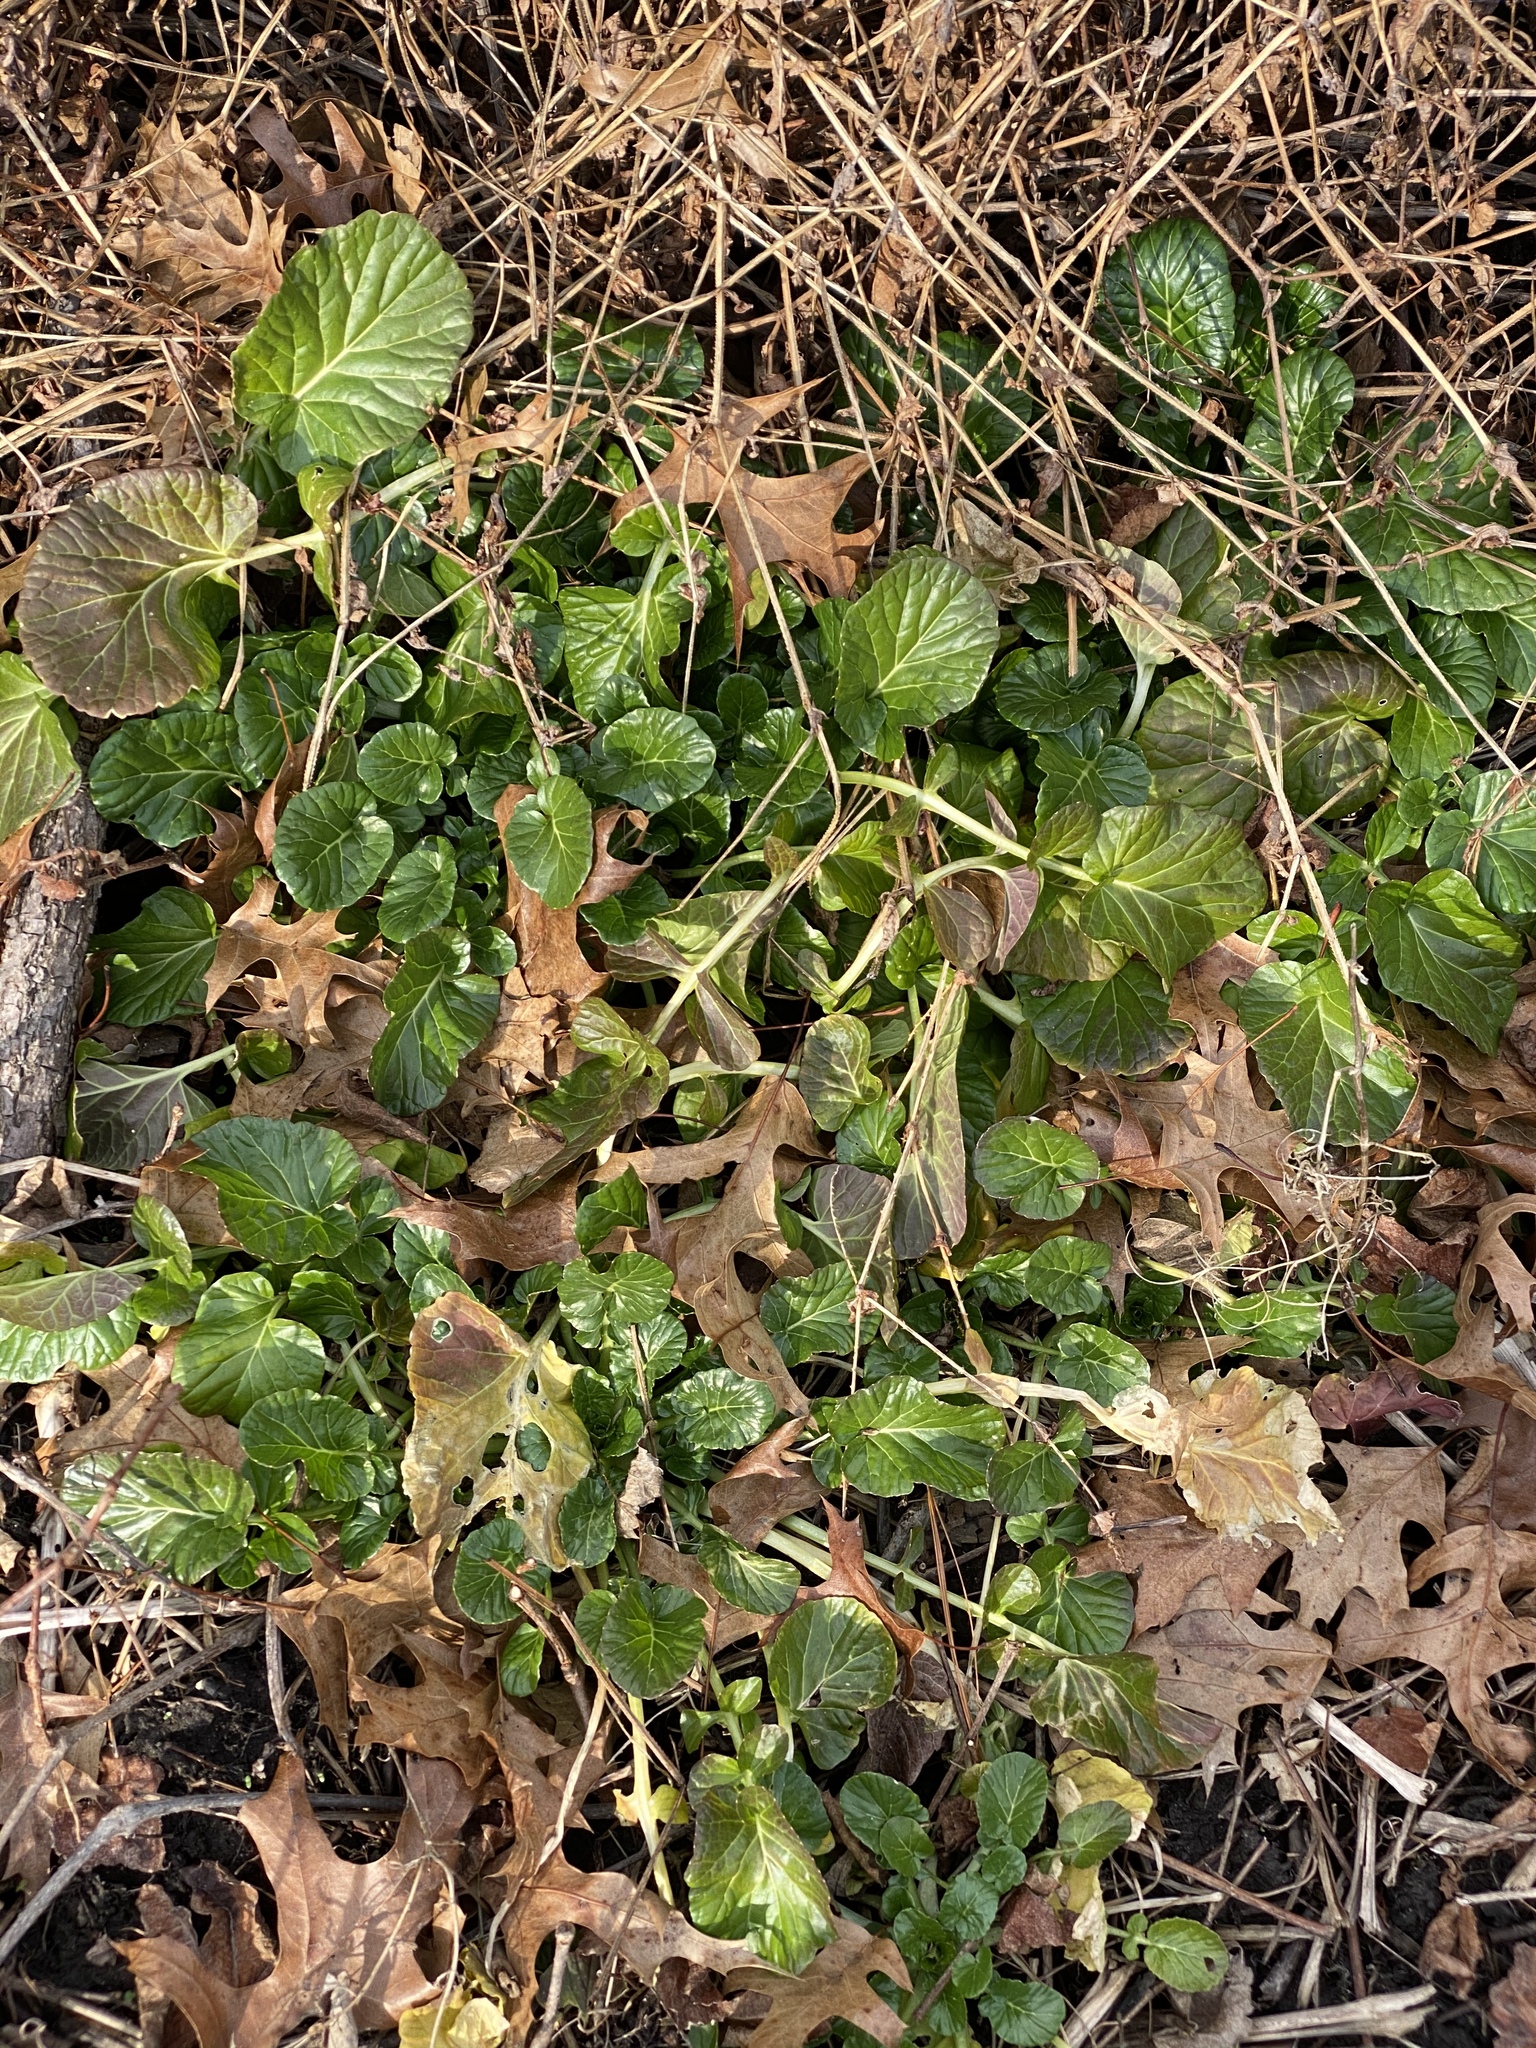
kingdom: Plantae
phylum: Tracheophyta
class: Magnoliopsida
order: Brassicales
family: Brassicaceae
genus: Barbarea
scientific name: Barbarea vulgaris
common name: Cressy-greens
